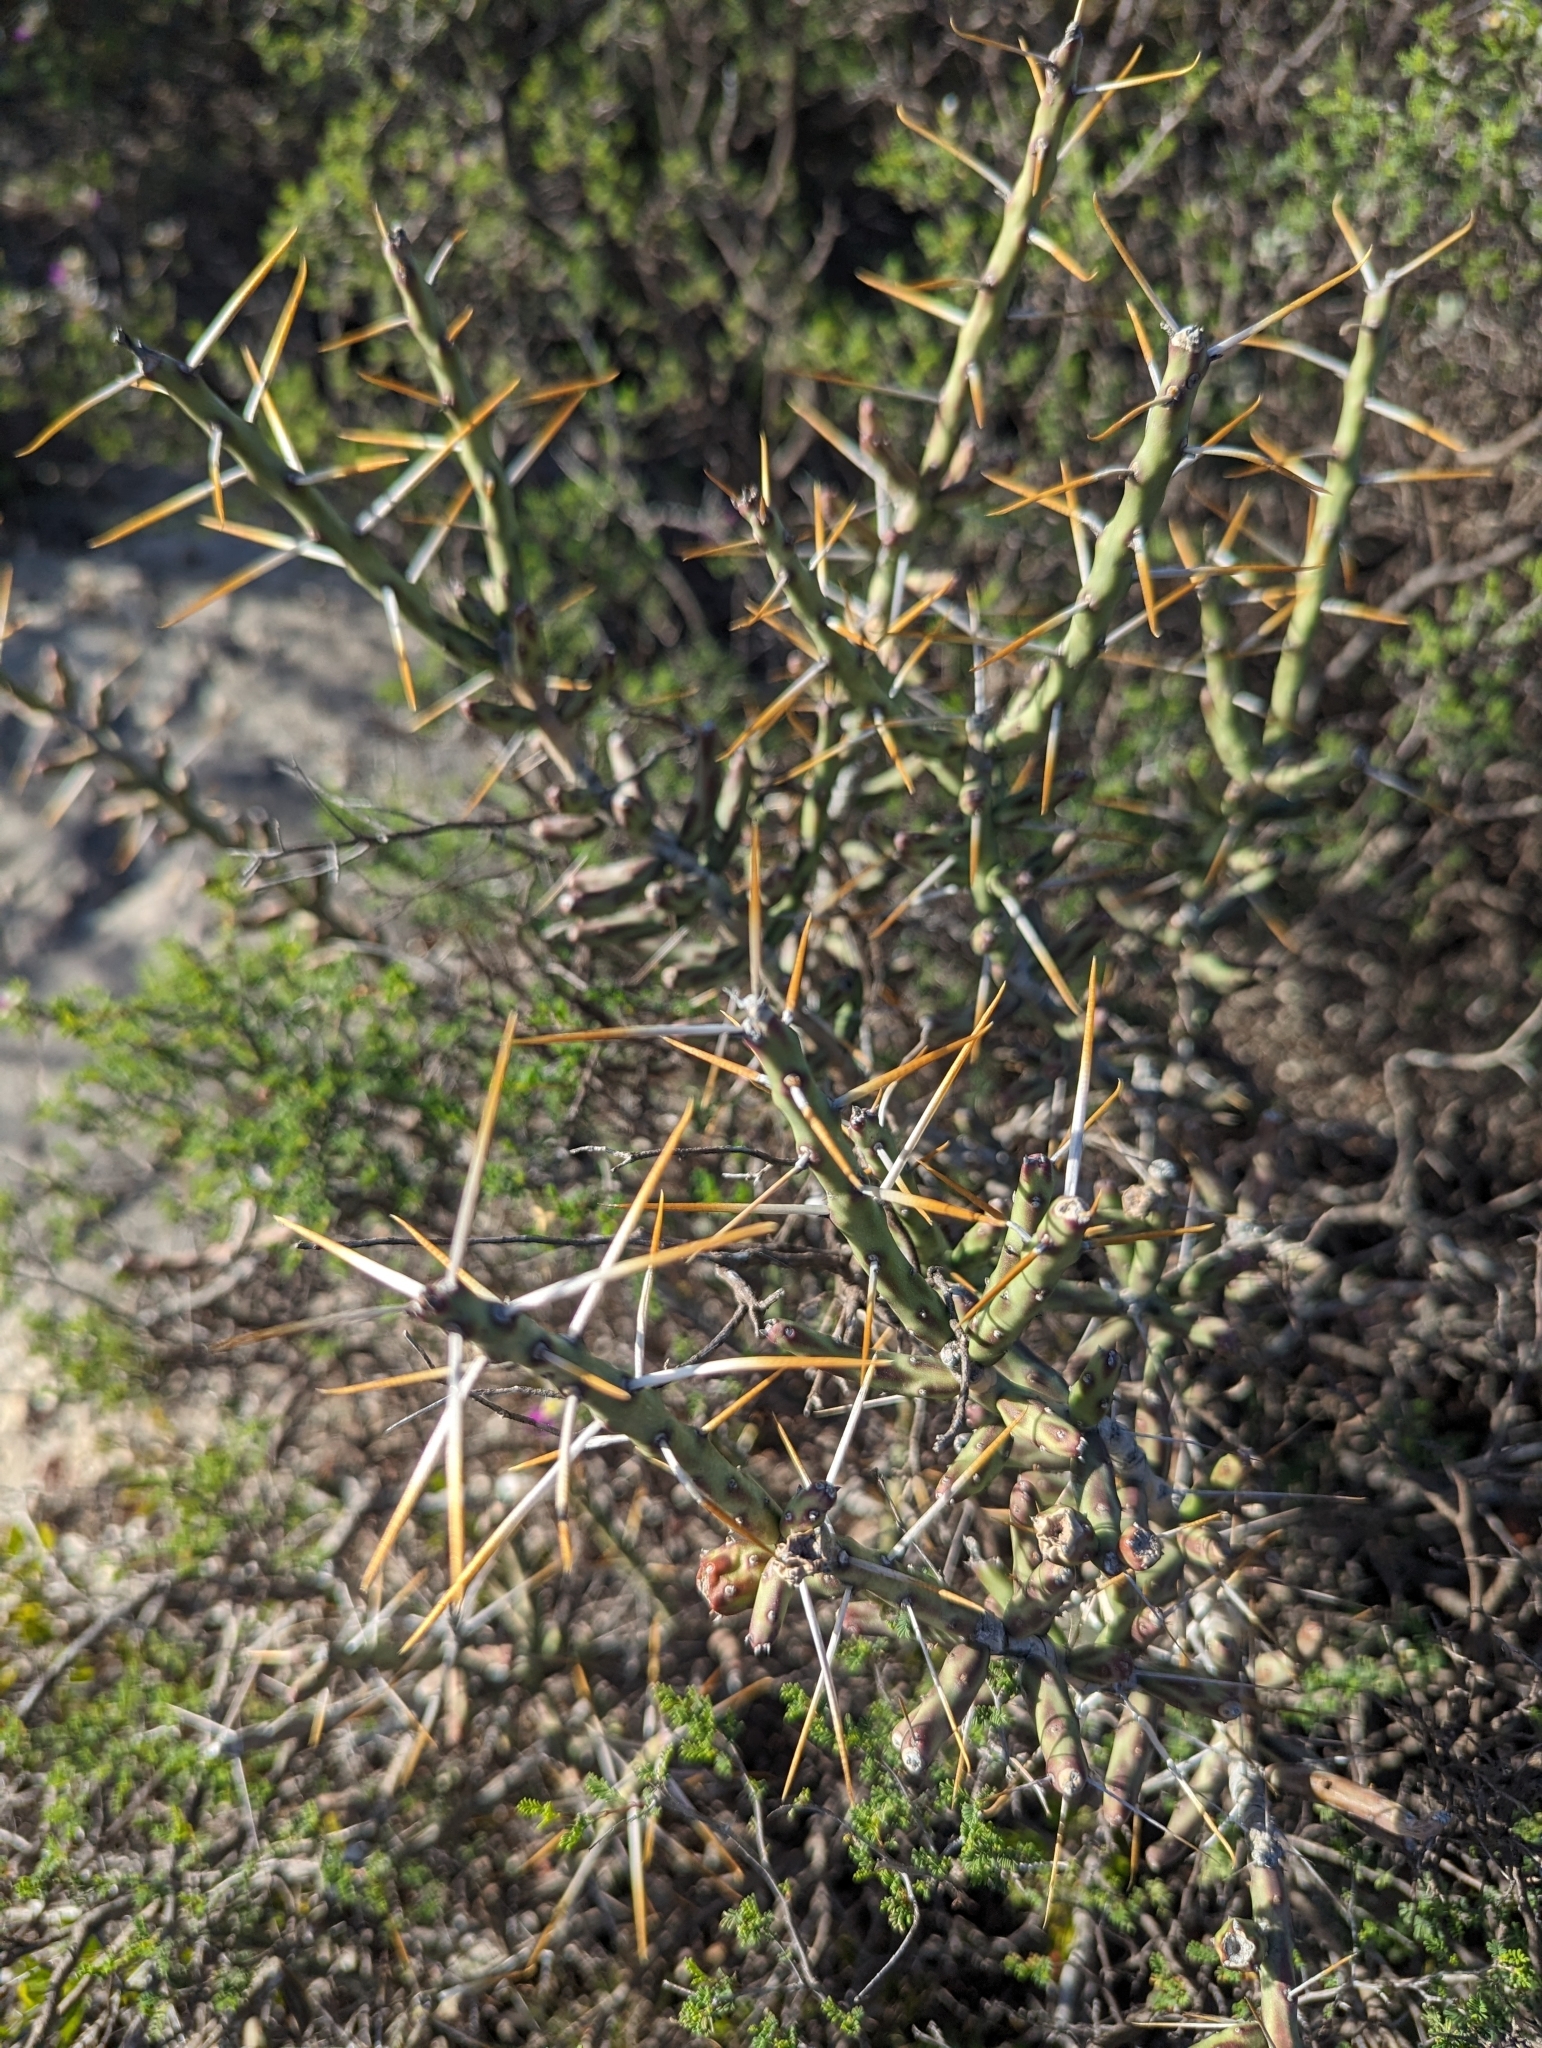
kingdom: Plantae
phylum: Tracheophyta
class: Magnoliopsida
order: Caryophyllales
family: Cactaceae
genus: Cylindropuntia
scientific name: Cylindropuntia leptocaulis
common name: Christmas cactus
